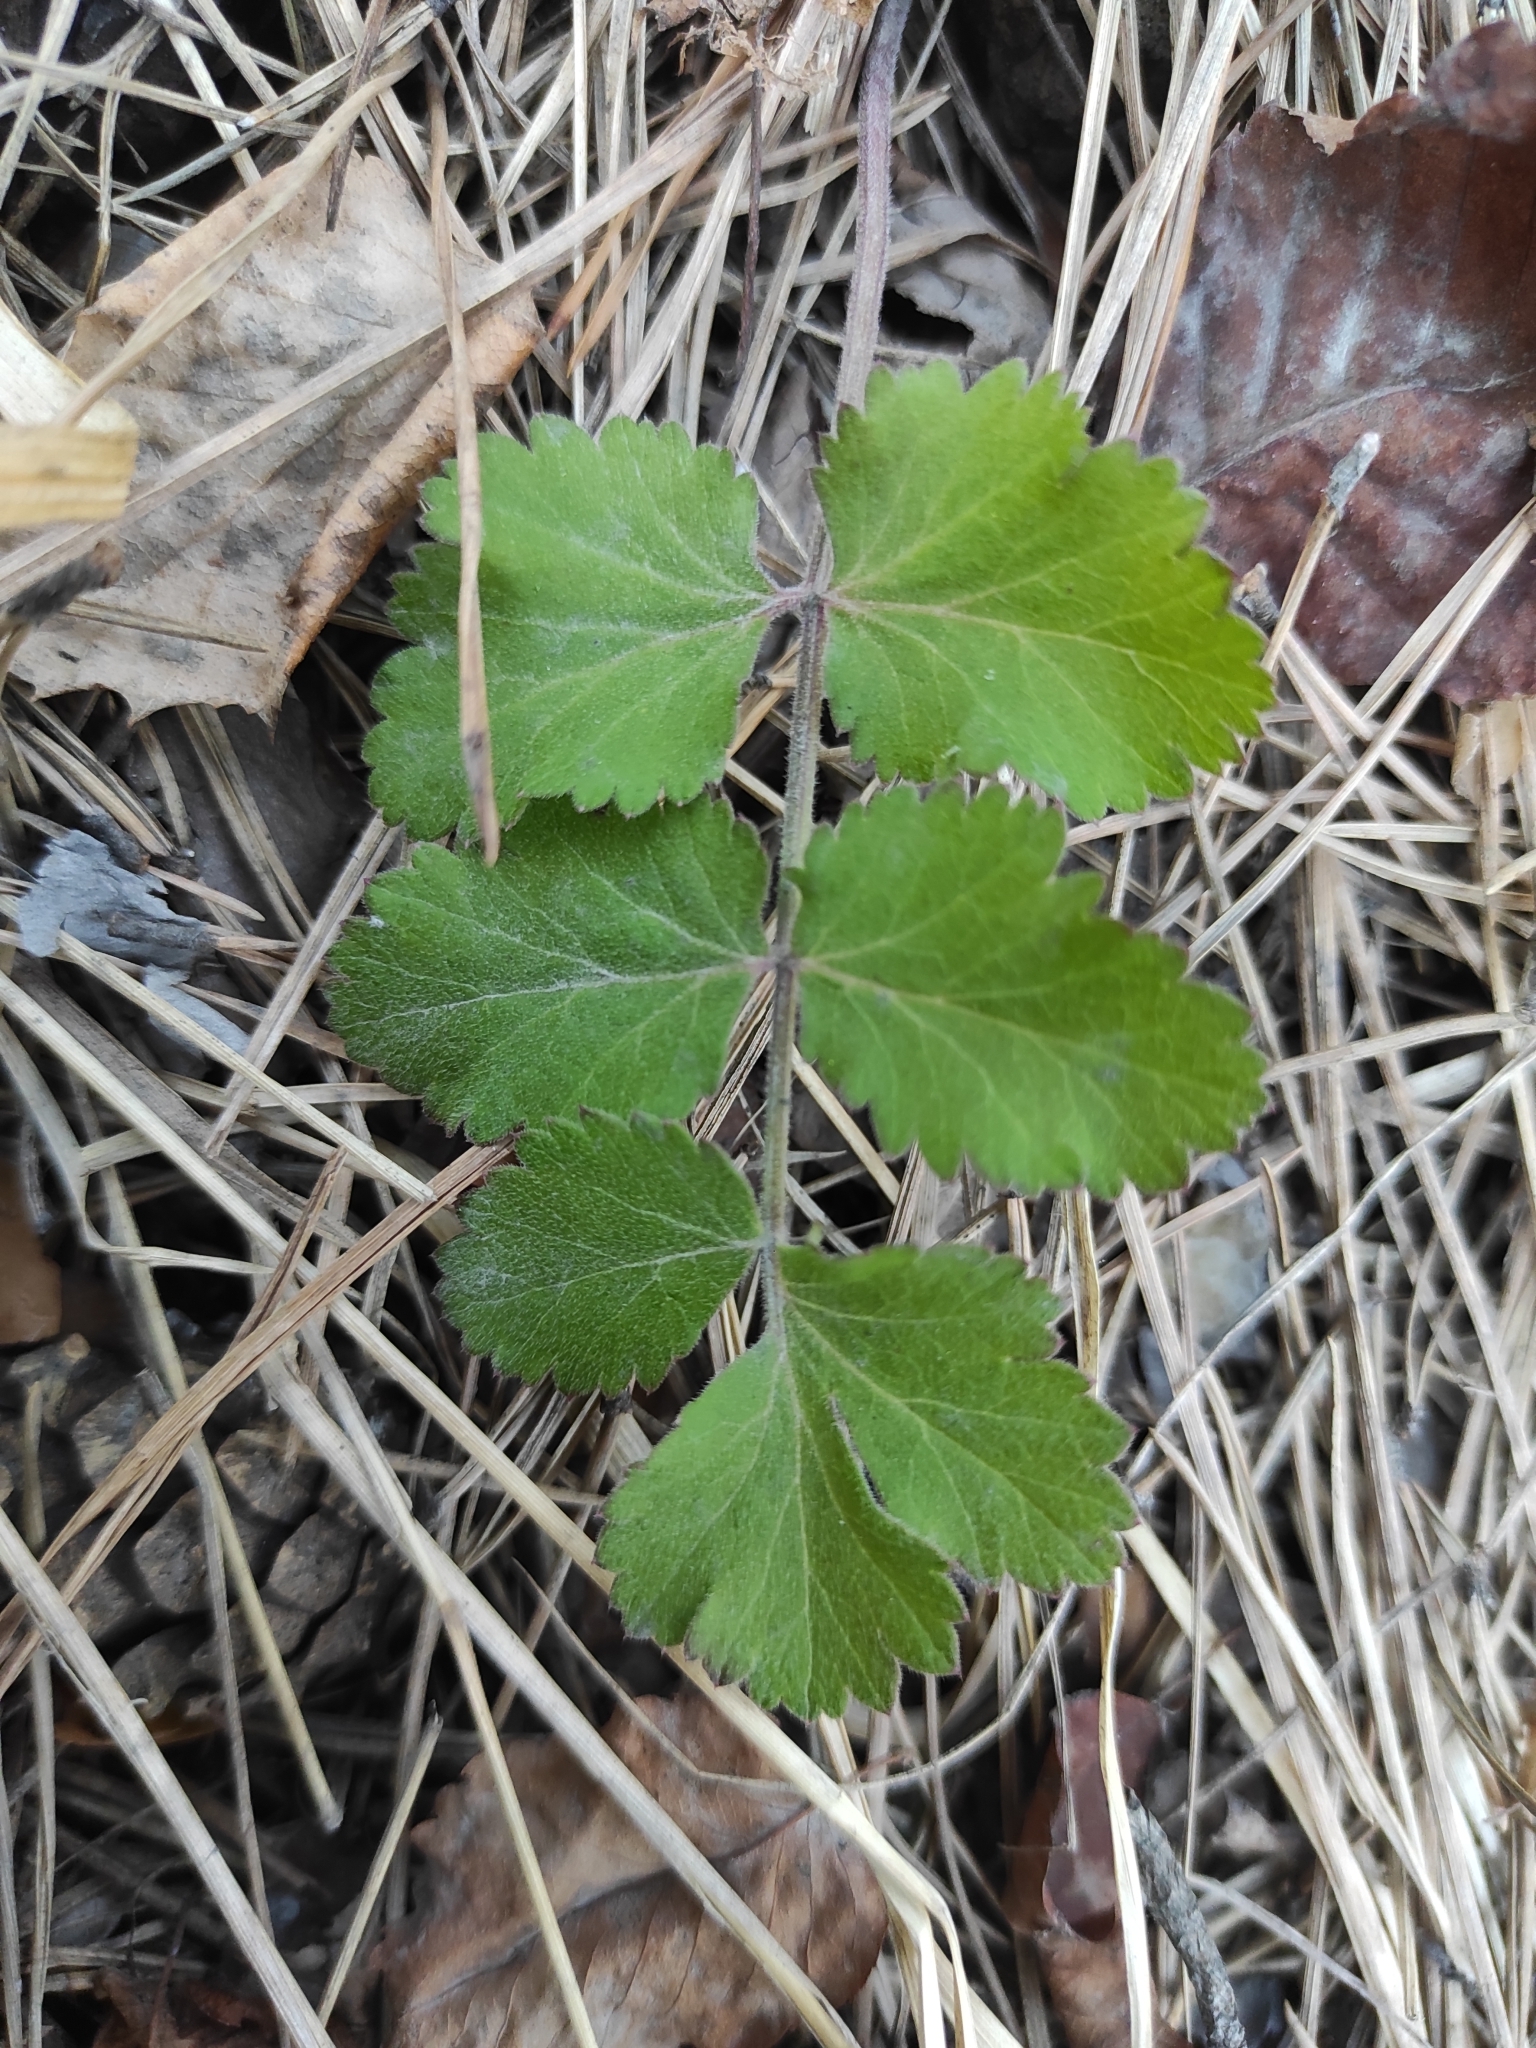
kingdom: Plantae
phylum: Tracheophyta
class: Magnoliopsida
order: Apiales
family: Apiaceae
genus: Pimpinella
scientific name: Pimpinella saxifraga
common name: Burnet-saxifrage
